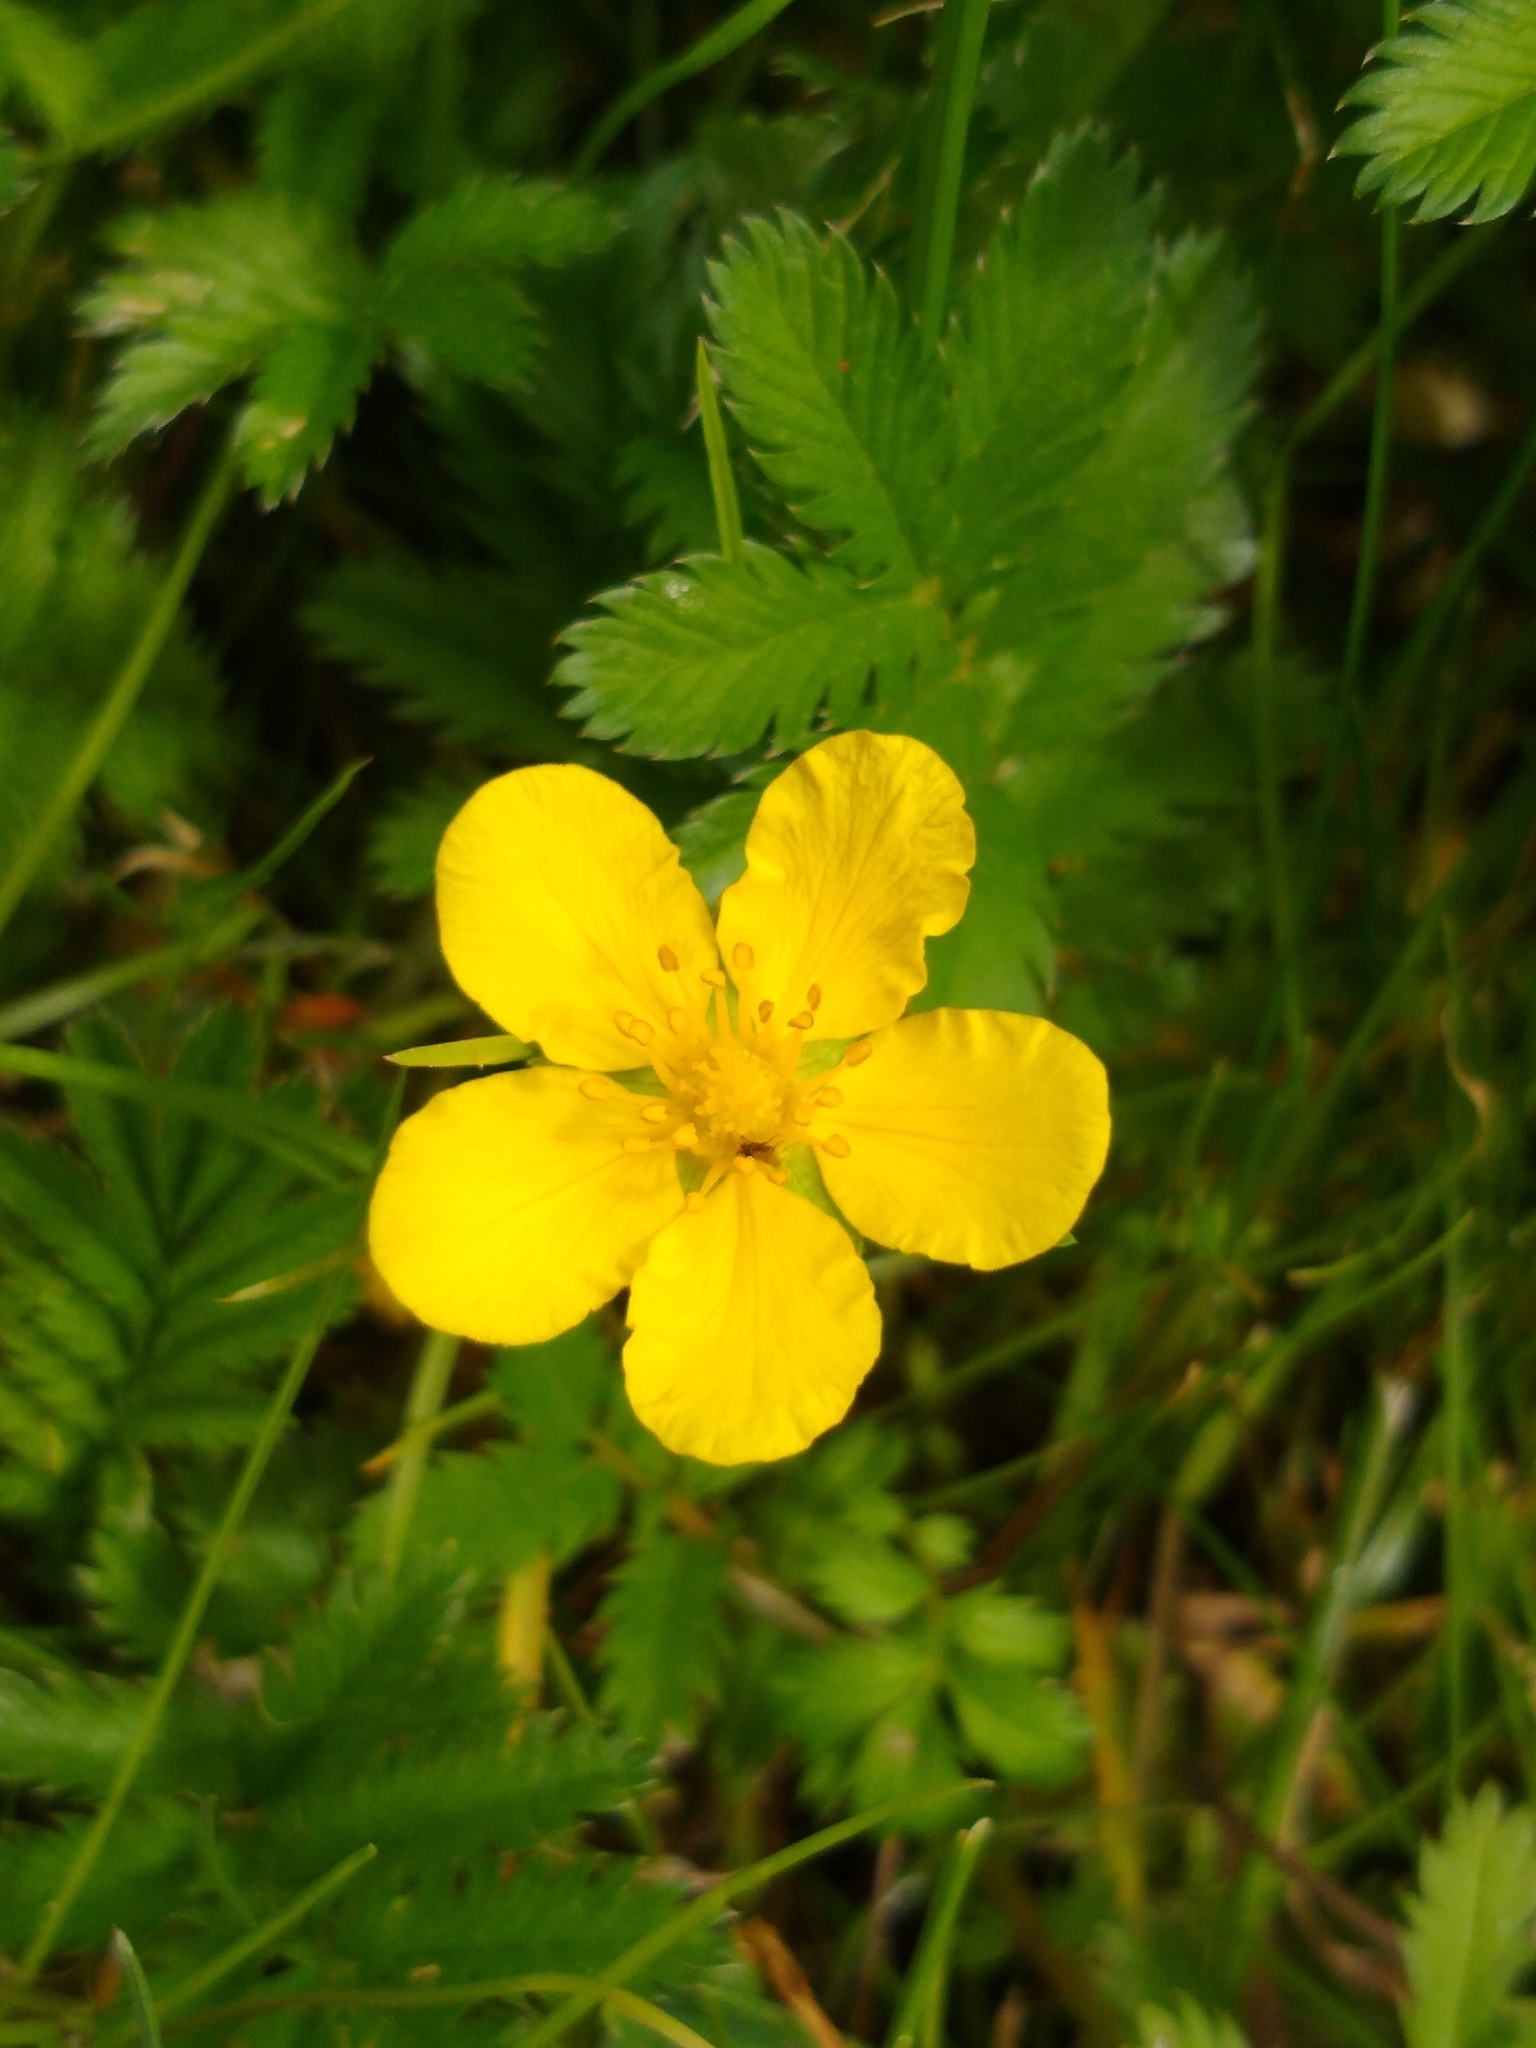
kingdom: Plantae
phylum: Tracheophyta
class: Magnoliopsida
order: Rosales
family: Rosaceae
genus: Argentina
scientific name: Argentina anserina
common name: Common silverweed
